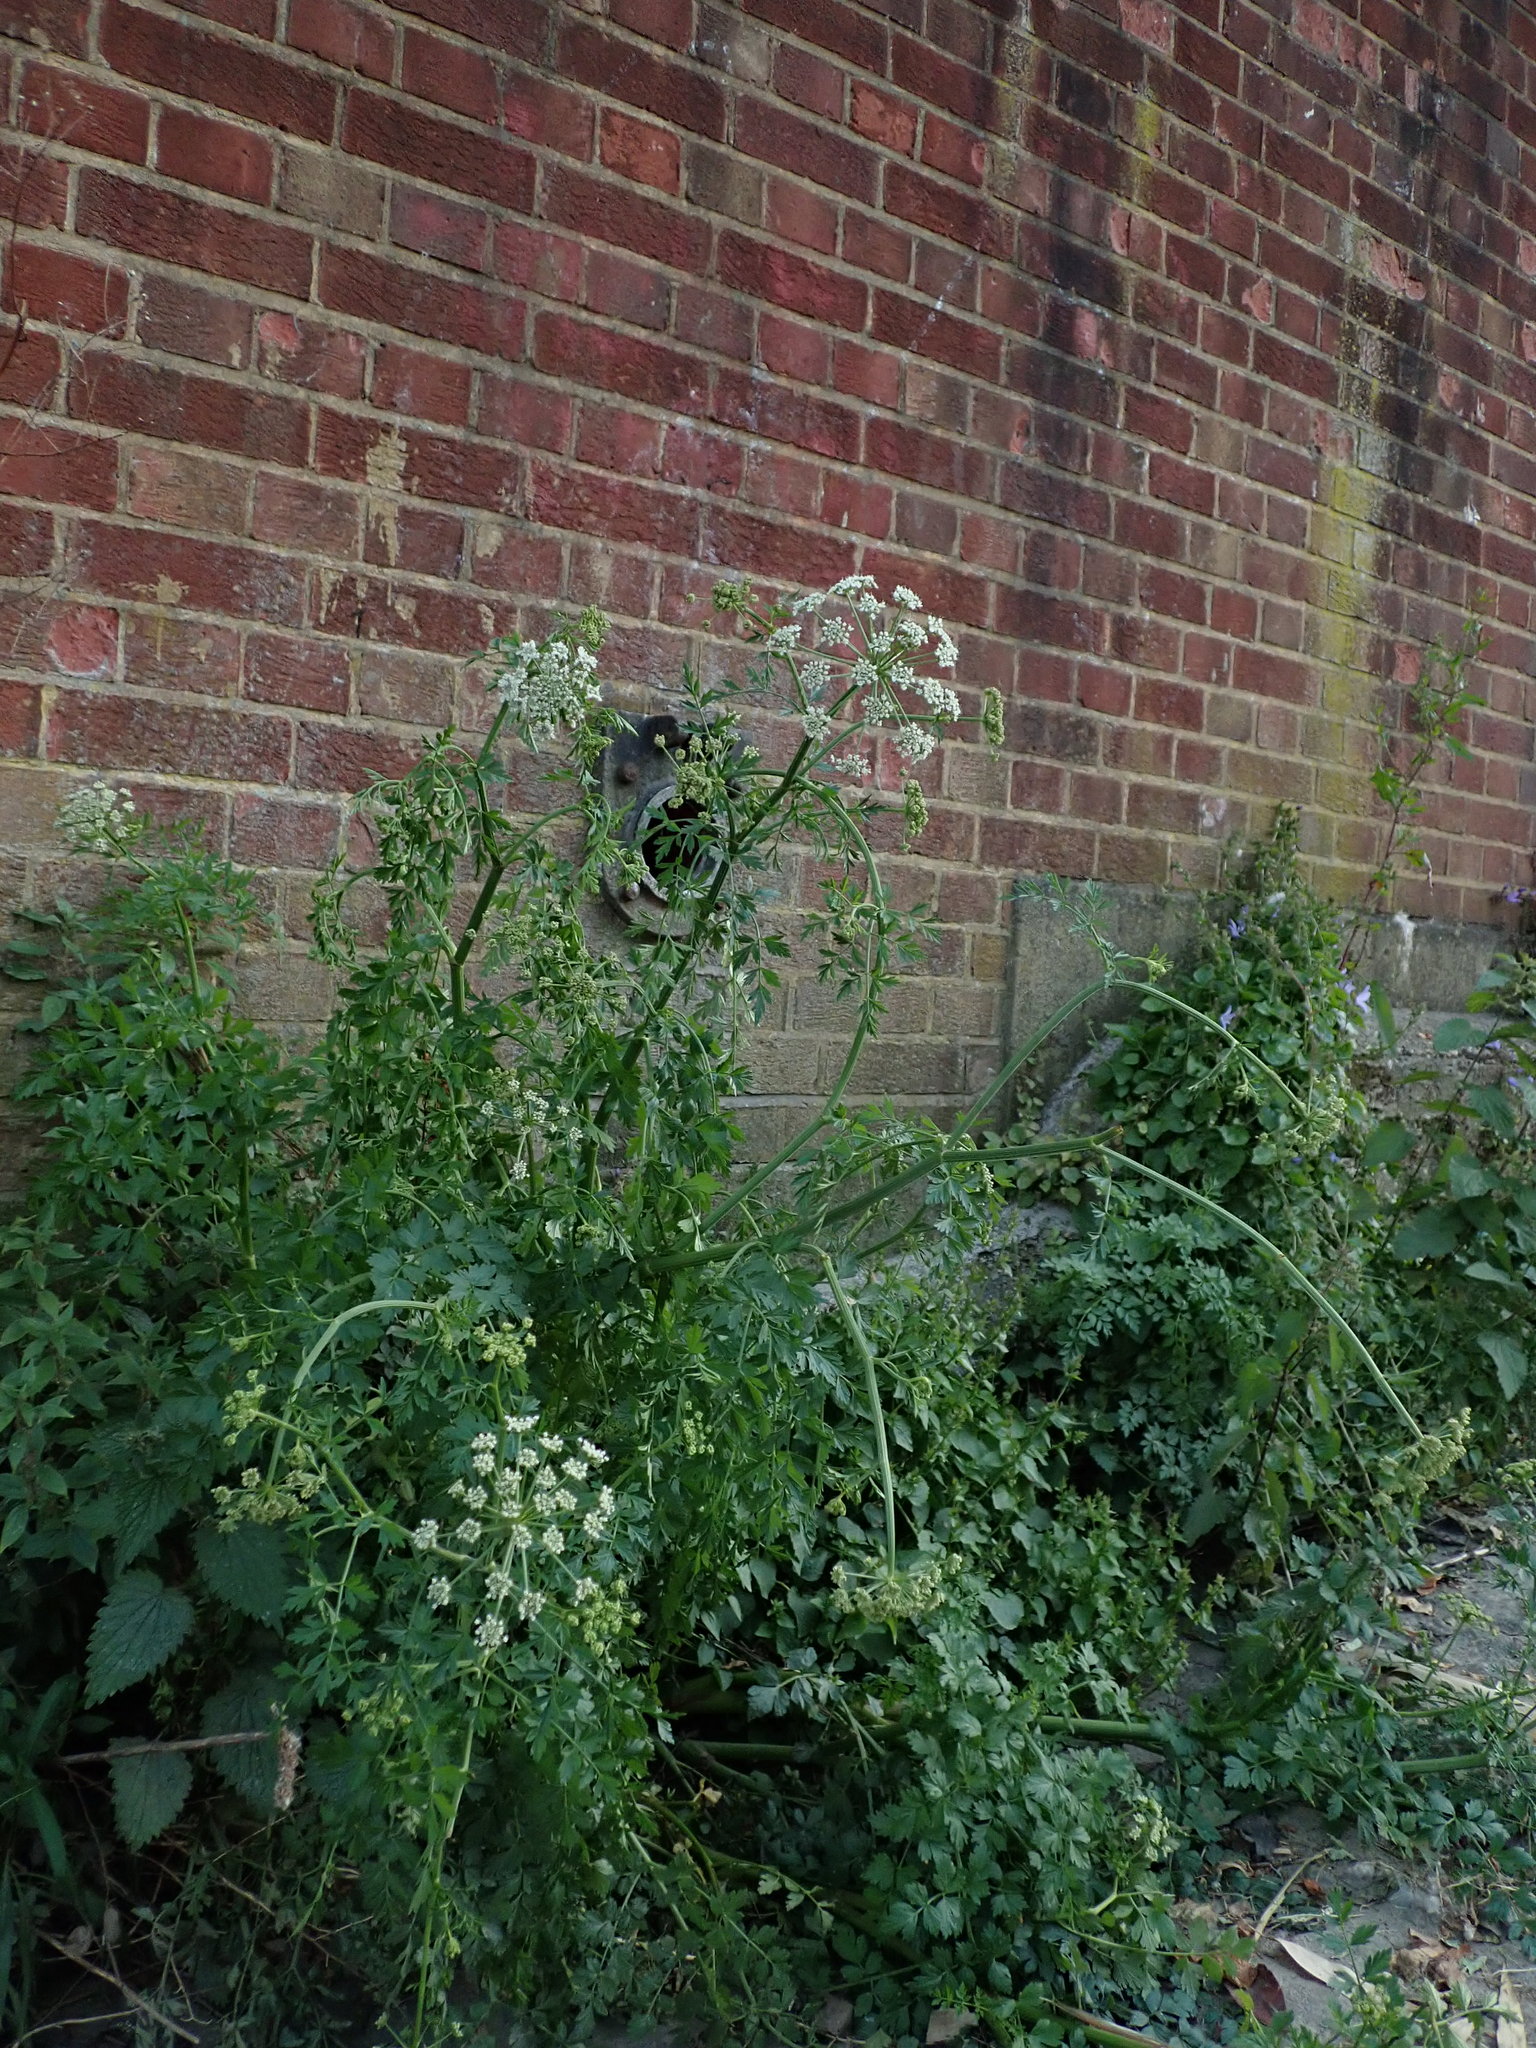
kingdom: Plantae
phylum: Tracheophyta
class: Magnoliopsida
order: Apiales
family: Apiaceae
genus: Oenanthe
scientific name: Oenanthe crocata
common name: Hemlock water-dropwort
